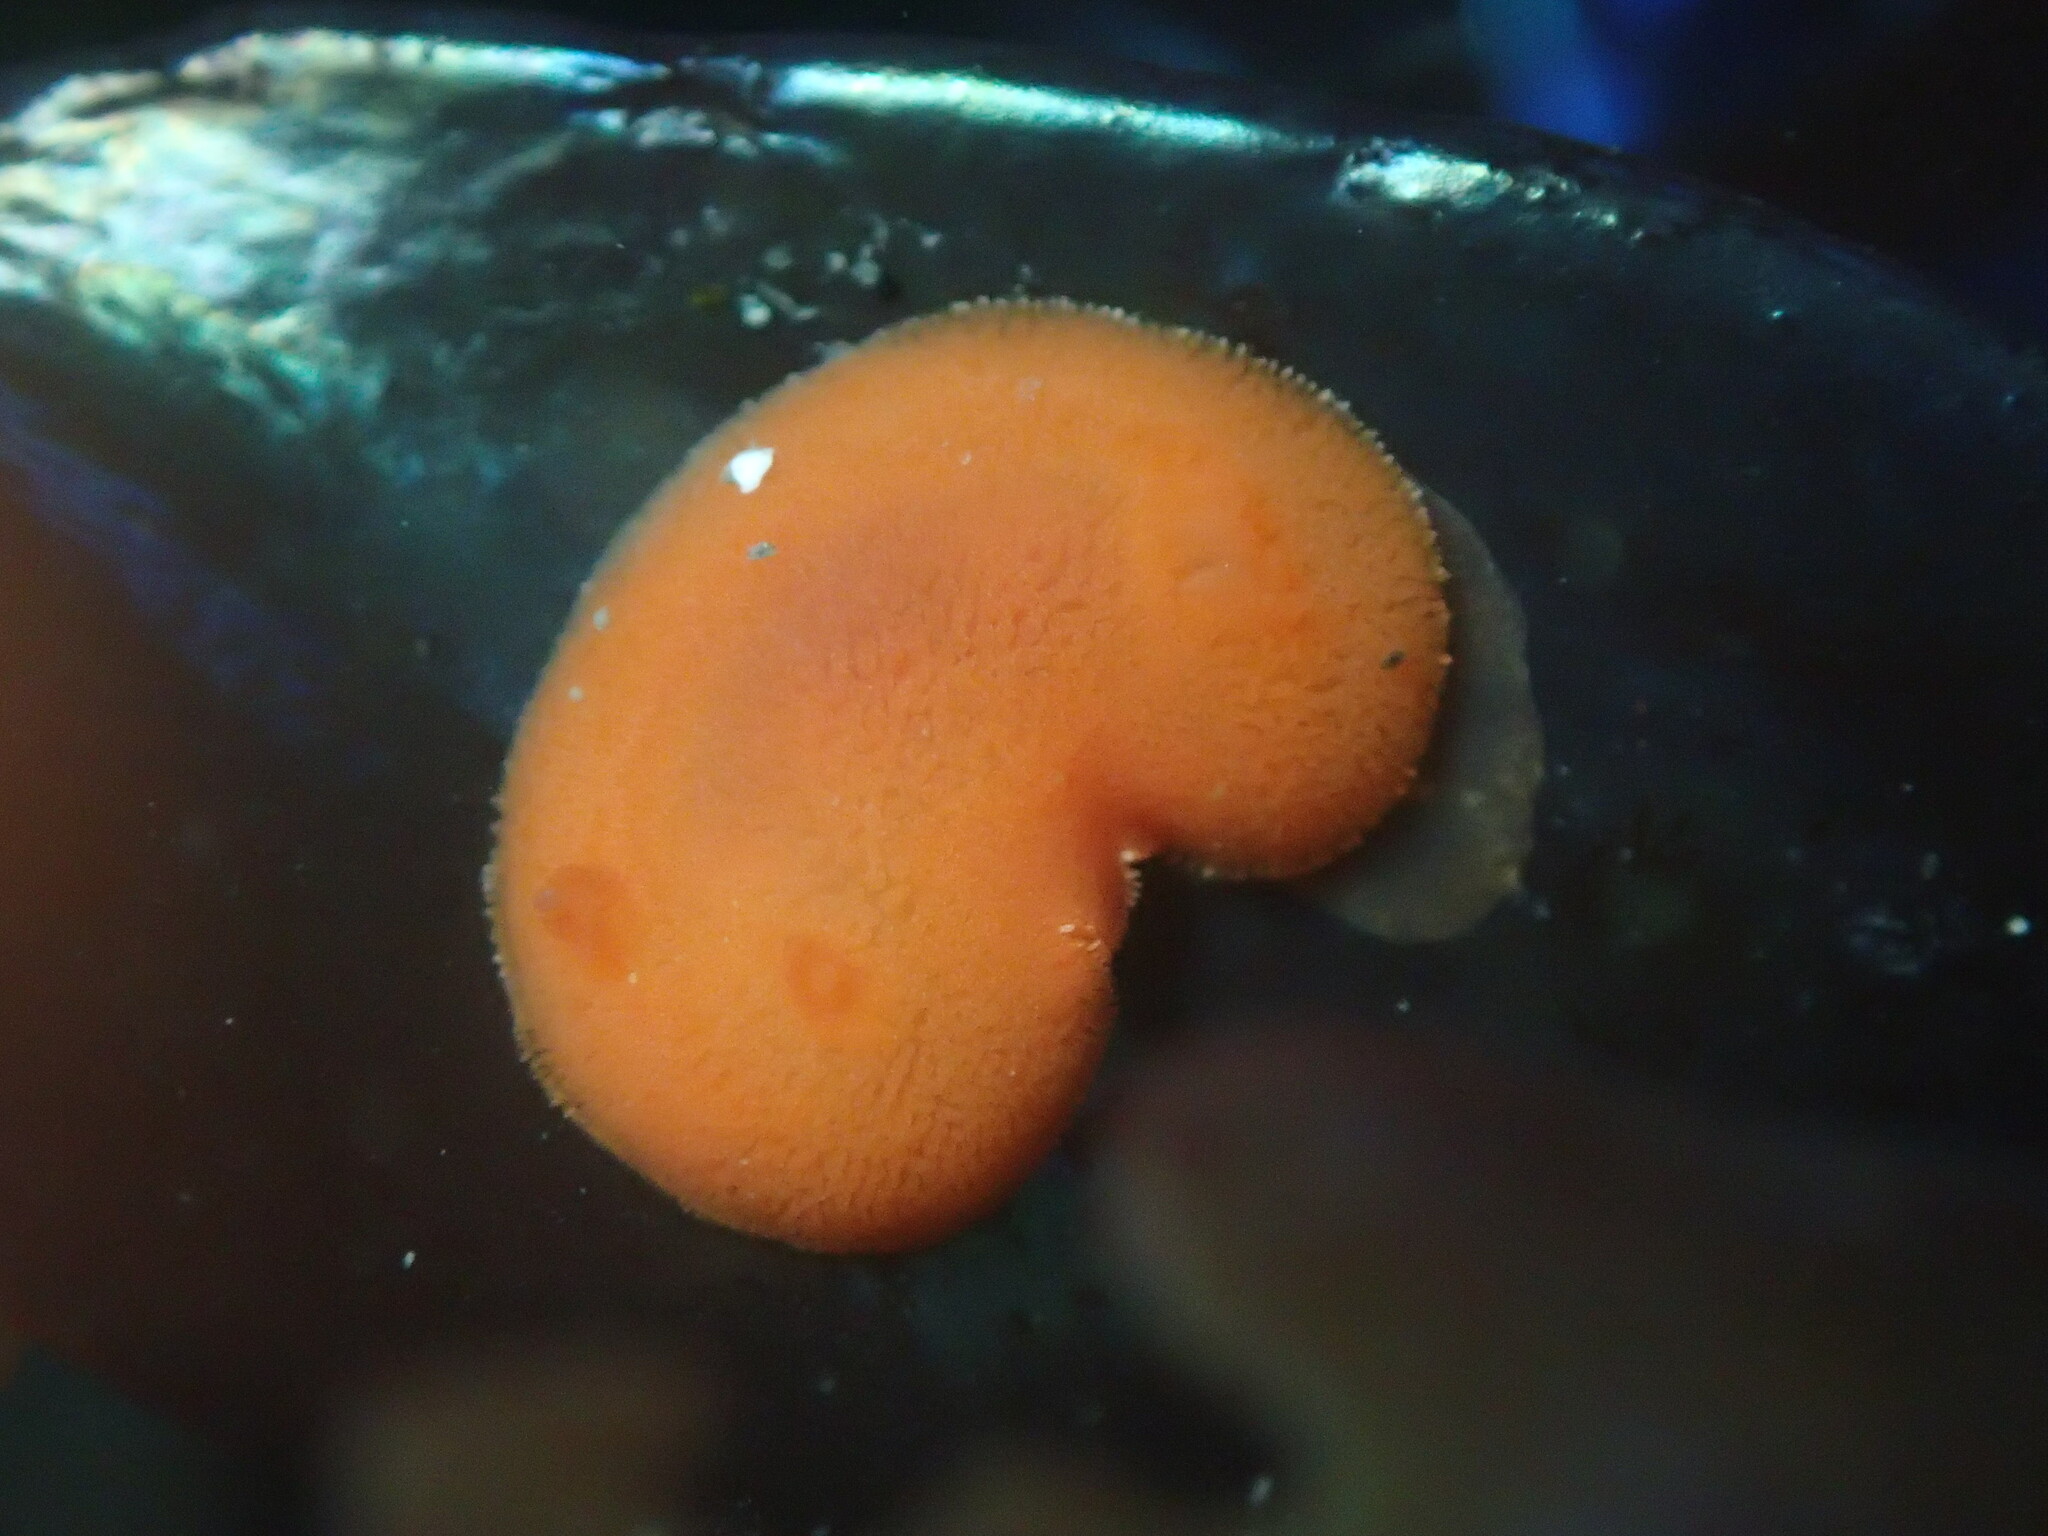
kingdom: Animalia
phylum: Mollusca
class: Gastropoda
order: Nudibranchia
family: Discodorididae
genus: Rostanga
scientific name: Rostanga pulchra
